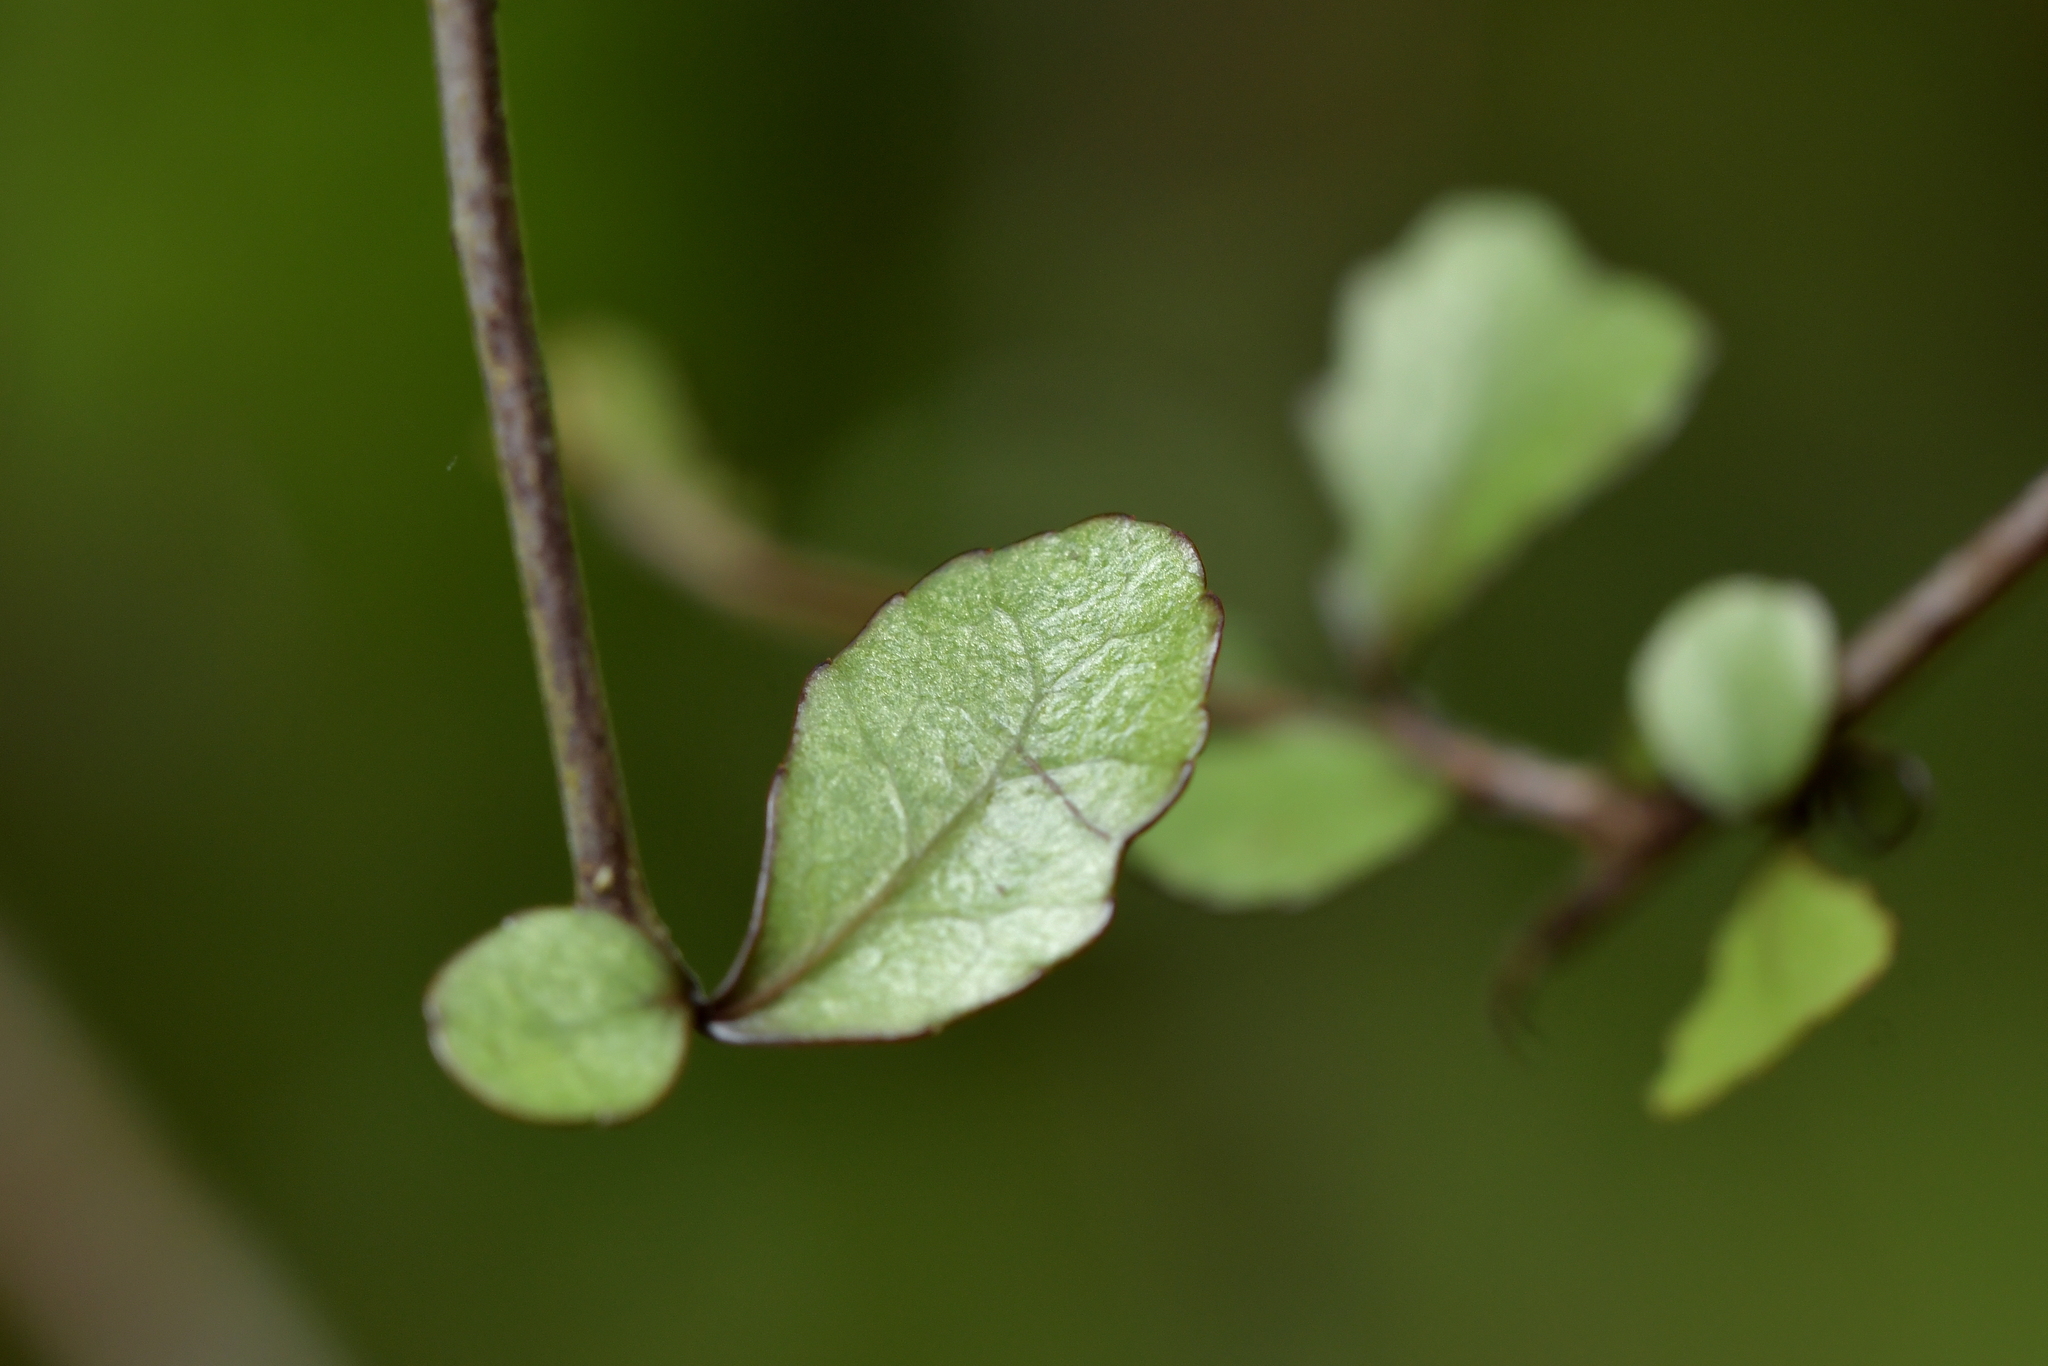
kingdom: Plantae
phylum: Tracheophyta
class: Magnoliopsida
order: Oxalidales
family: Elaeocarpaceae
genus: Elaeocarpus
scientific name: Elaeocarpus hookerianus
